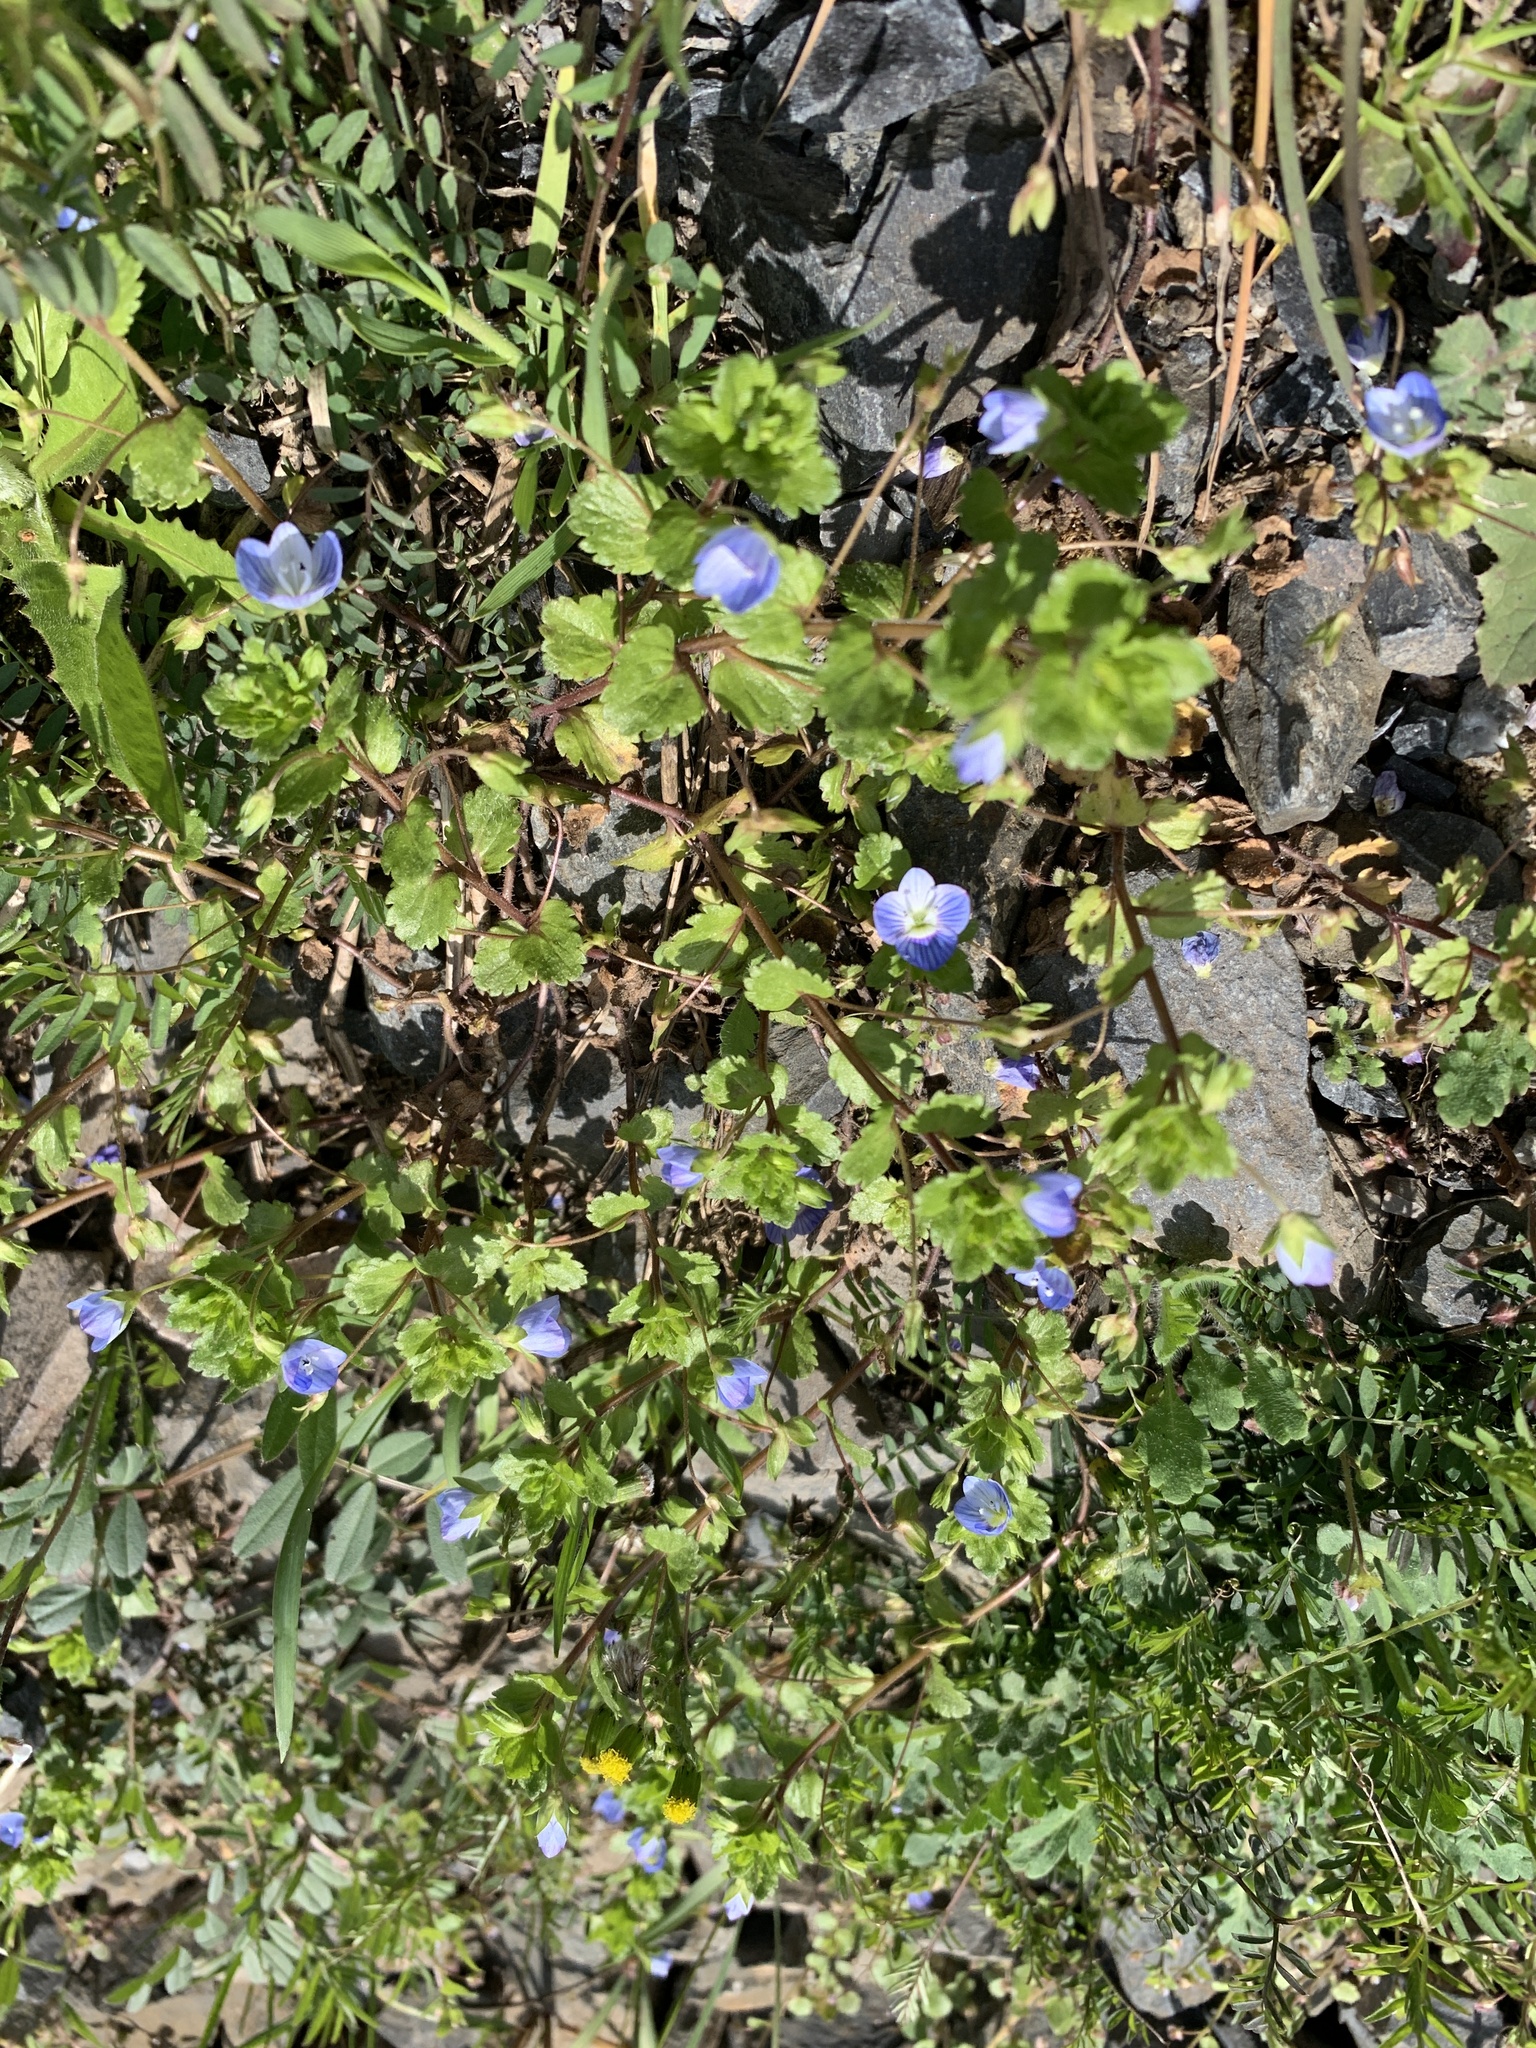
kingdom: Plantae
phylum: Tracheophyta
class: Magnoliopsida
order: Lamiales
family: Plantaginaceae
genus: Veronica
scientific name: Veronica persica
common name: Common field-speedwell
